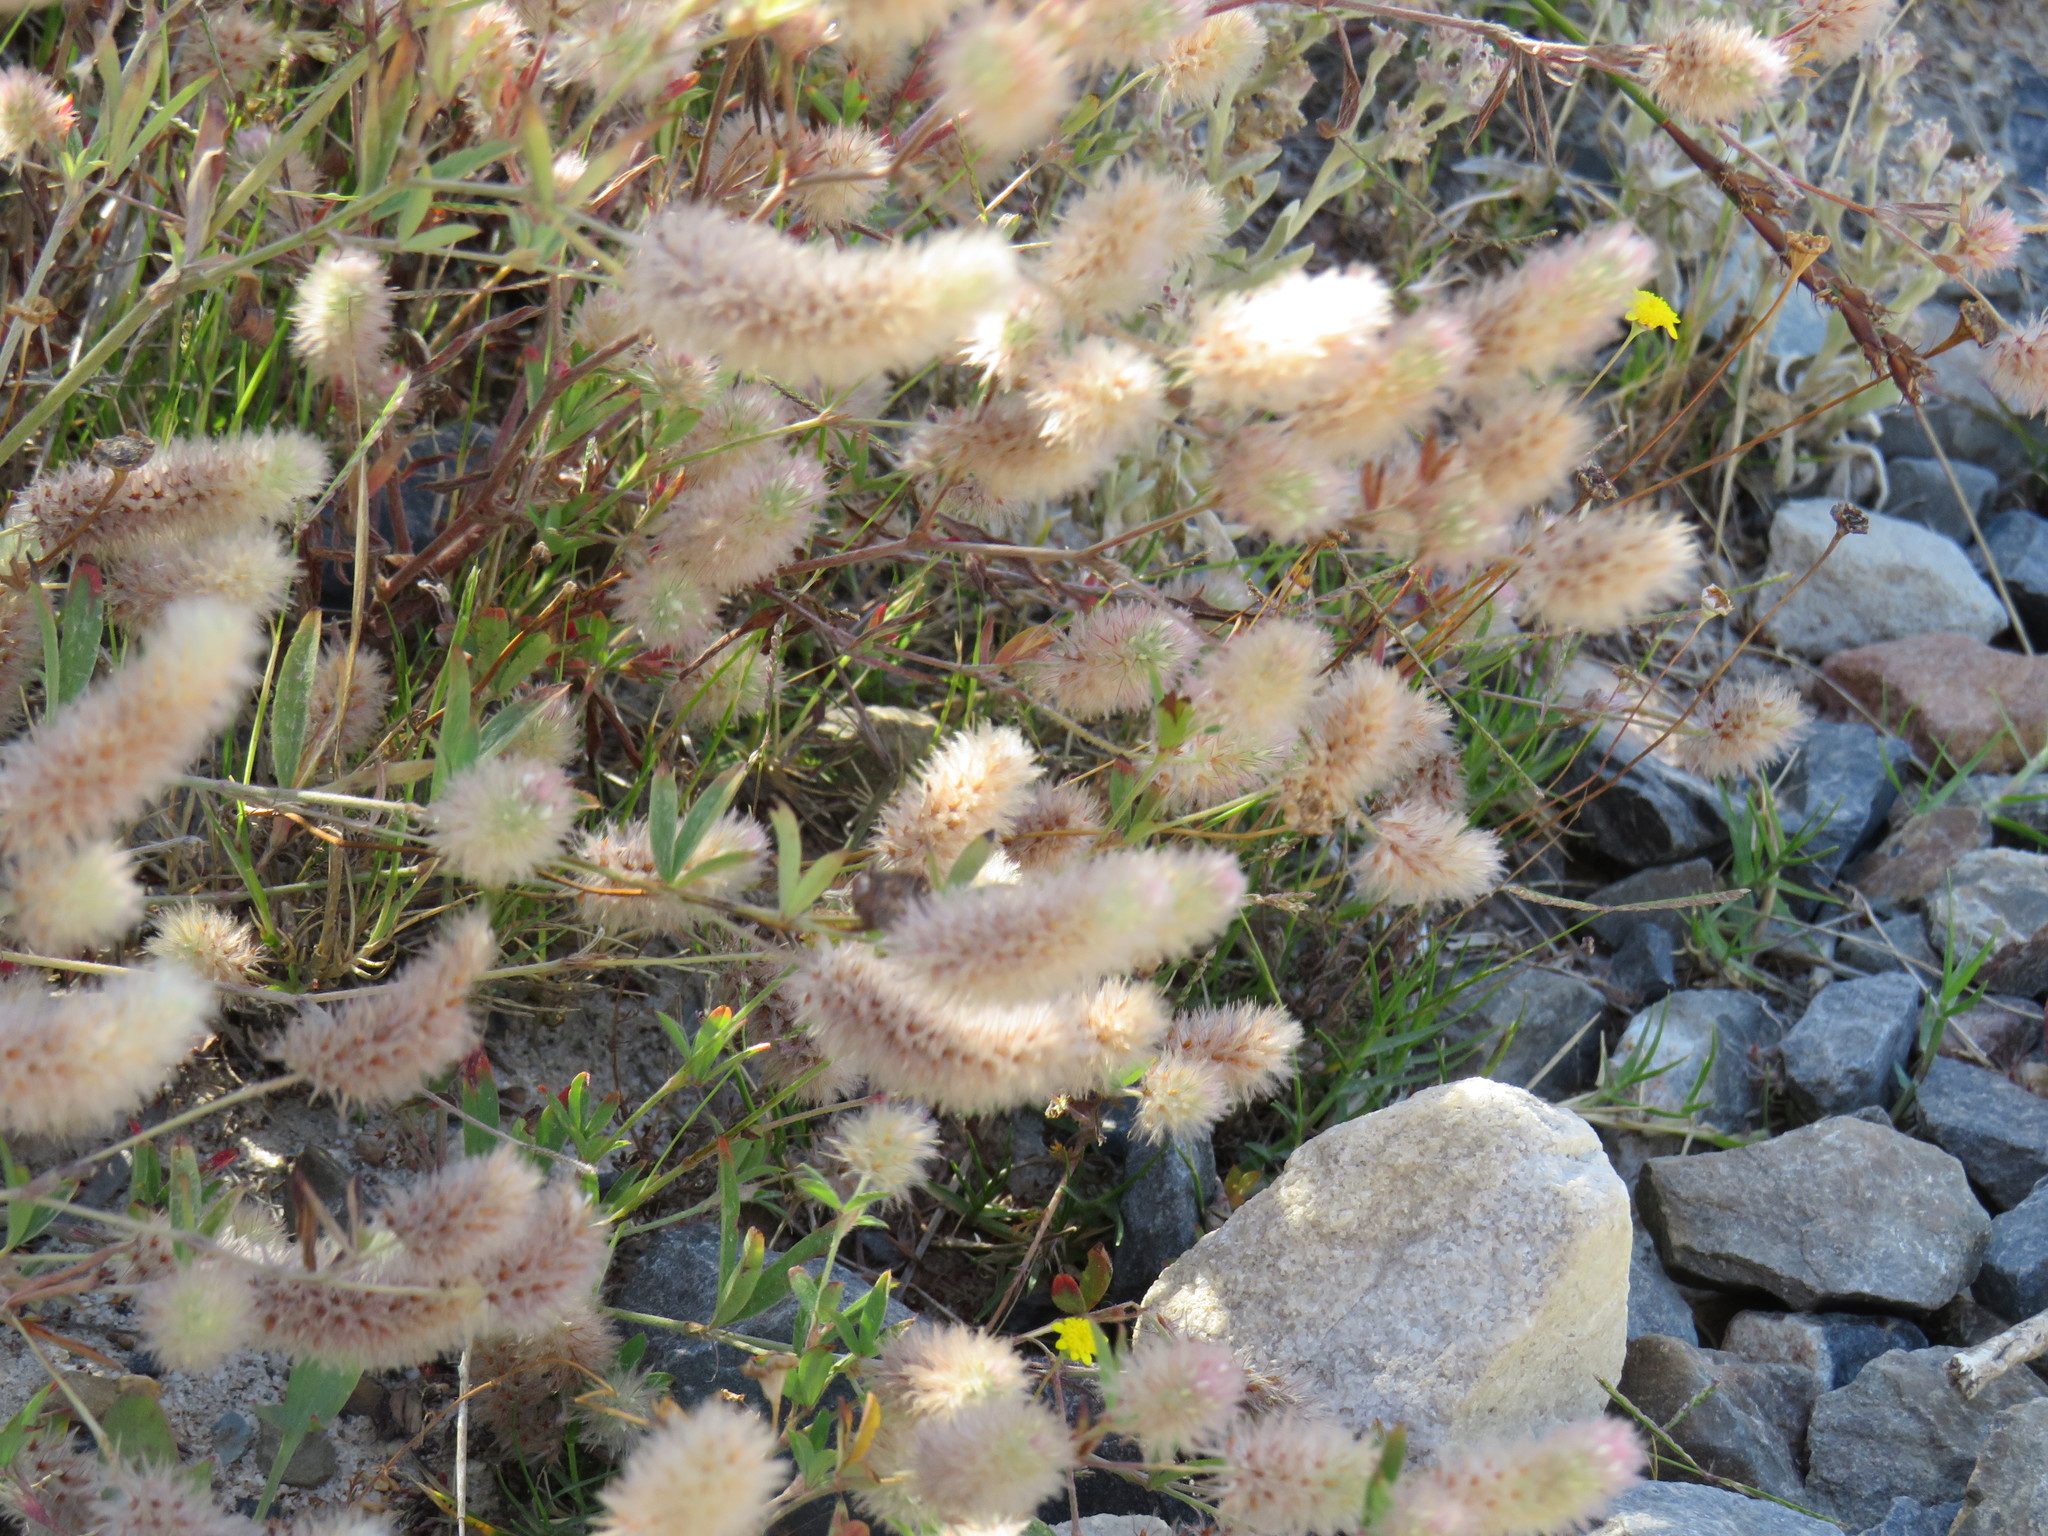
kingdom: Plantae
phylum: Tracheophyta
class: Magnoliopsida
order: Fabales
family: Fabaceae
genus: Trifolium
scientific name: Trifolium arvense
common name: Hare's-foot clover
